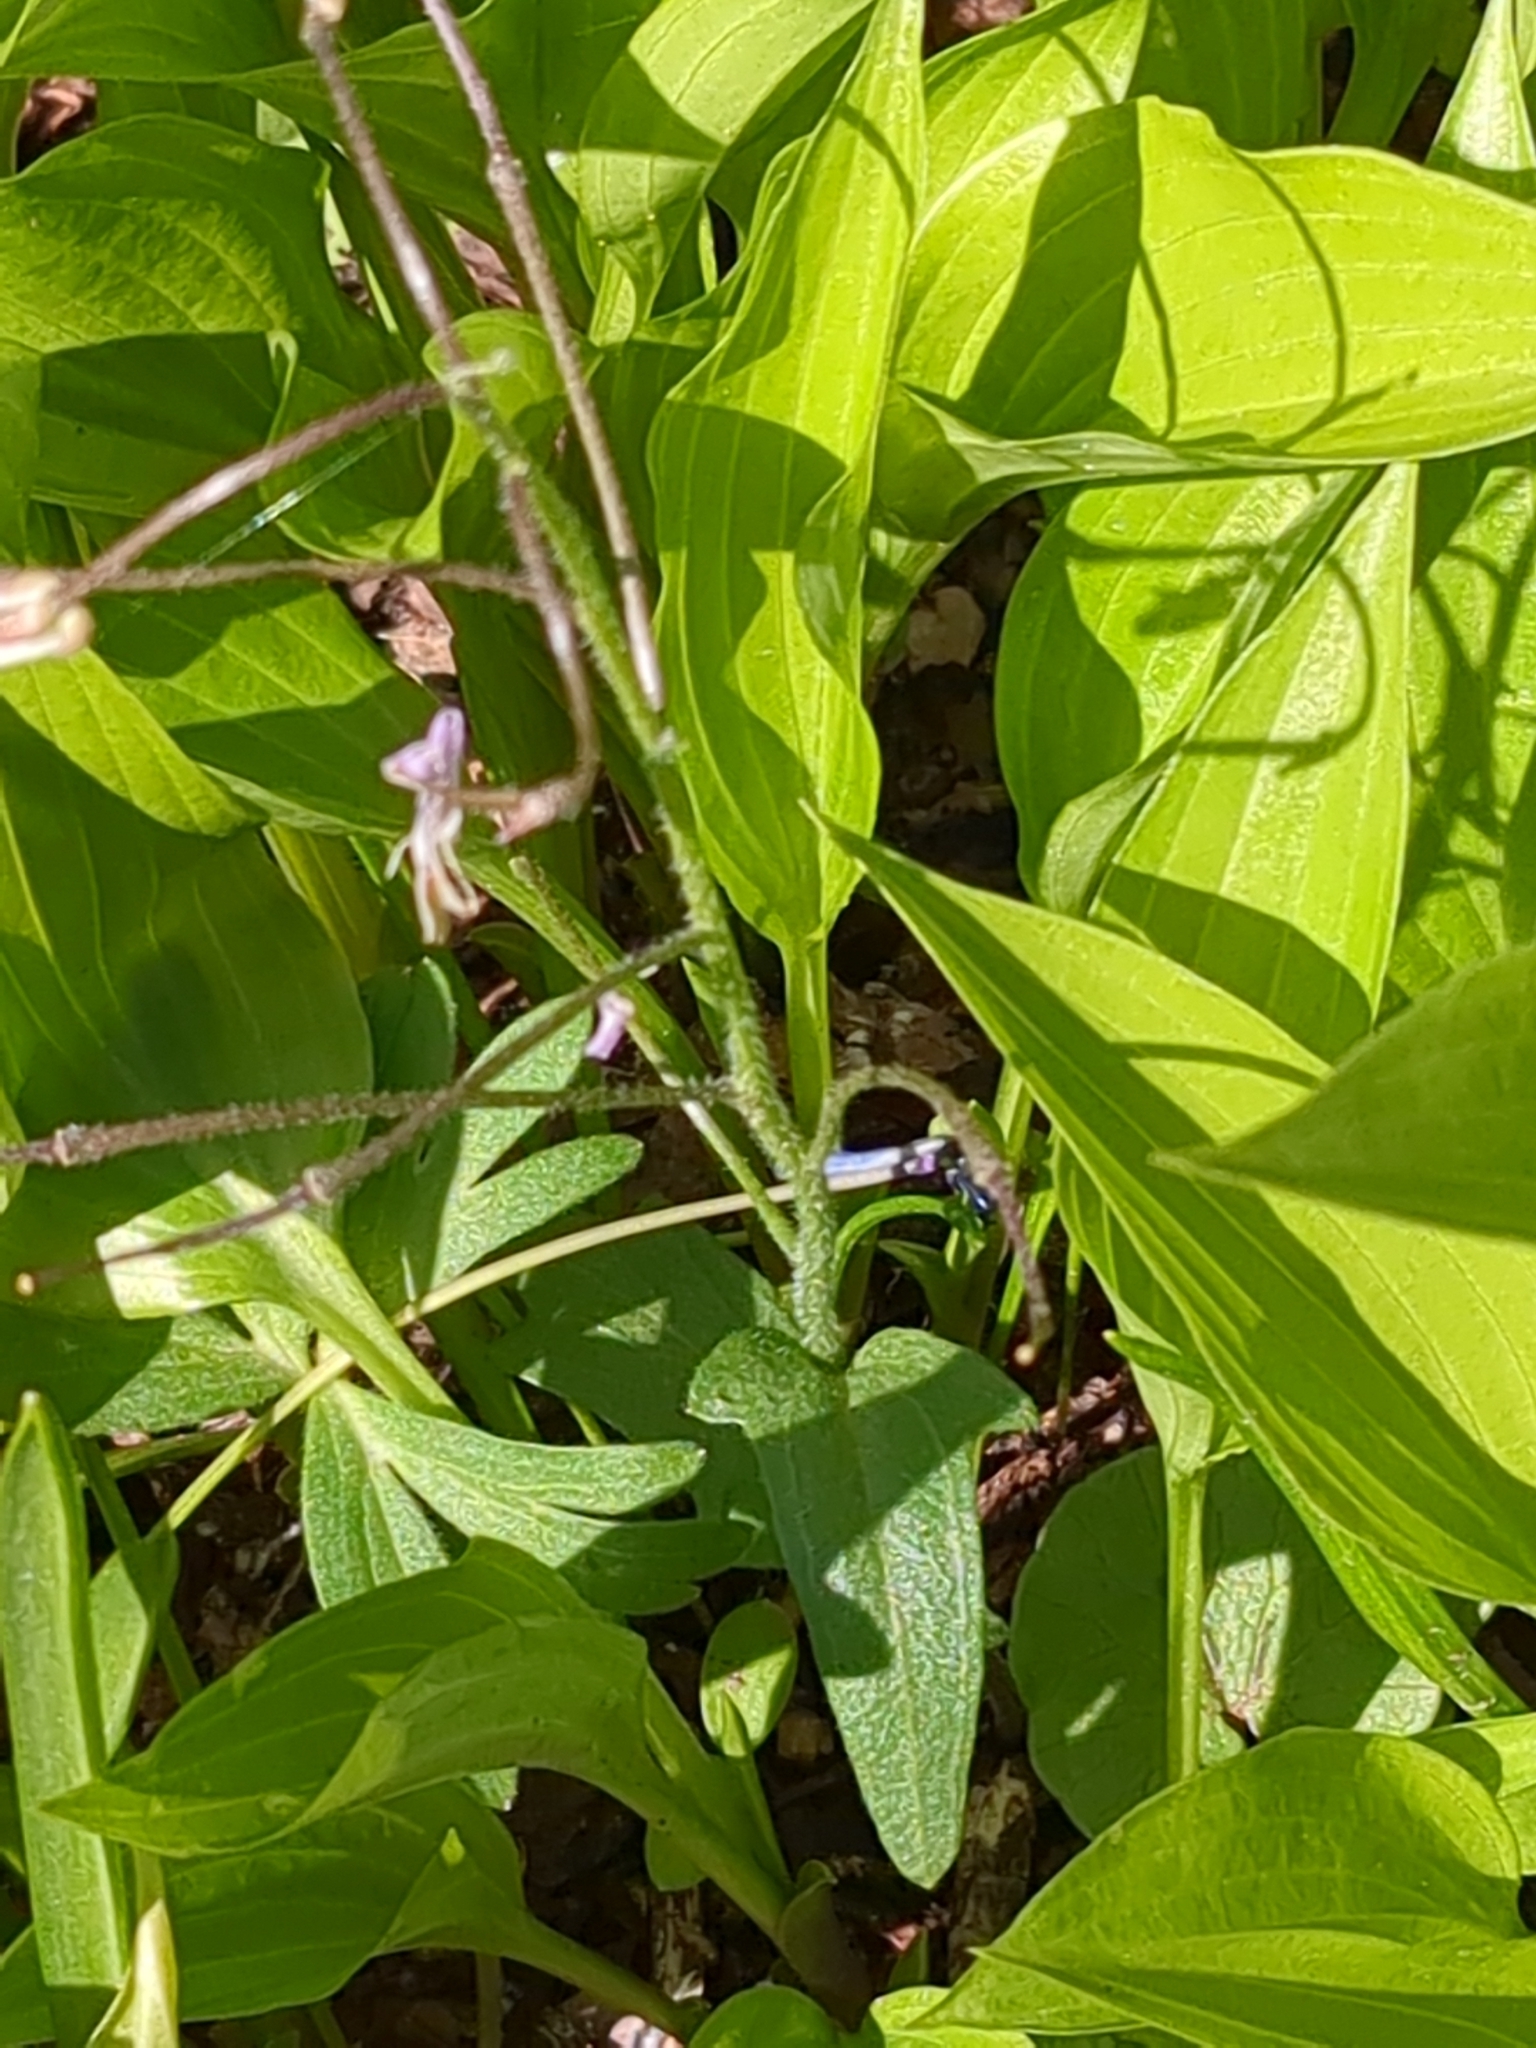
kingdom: Plantae
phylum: Tracheophyta
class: Magnoliopsida
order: Brassicales
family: Brassicaceae
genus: Cardamine
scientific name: Cardamine douglassii
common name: Purple cress
